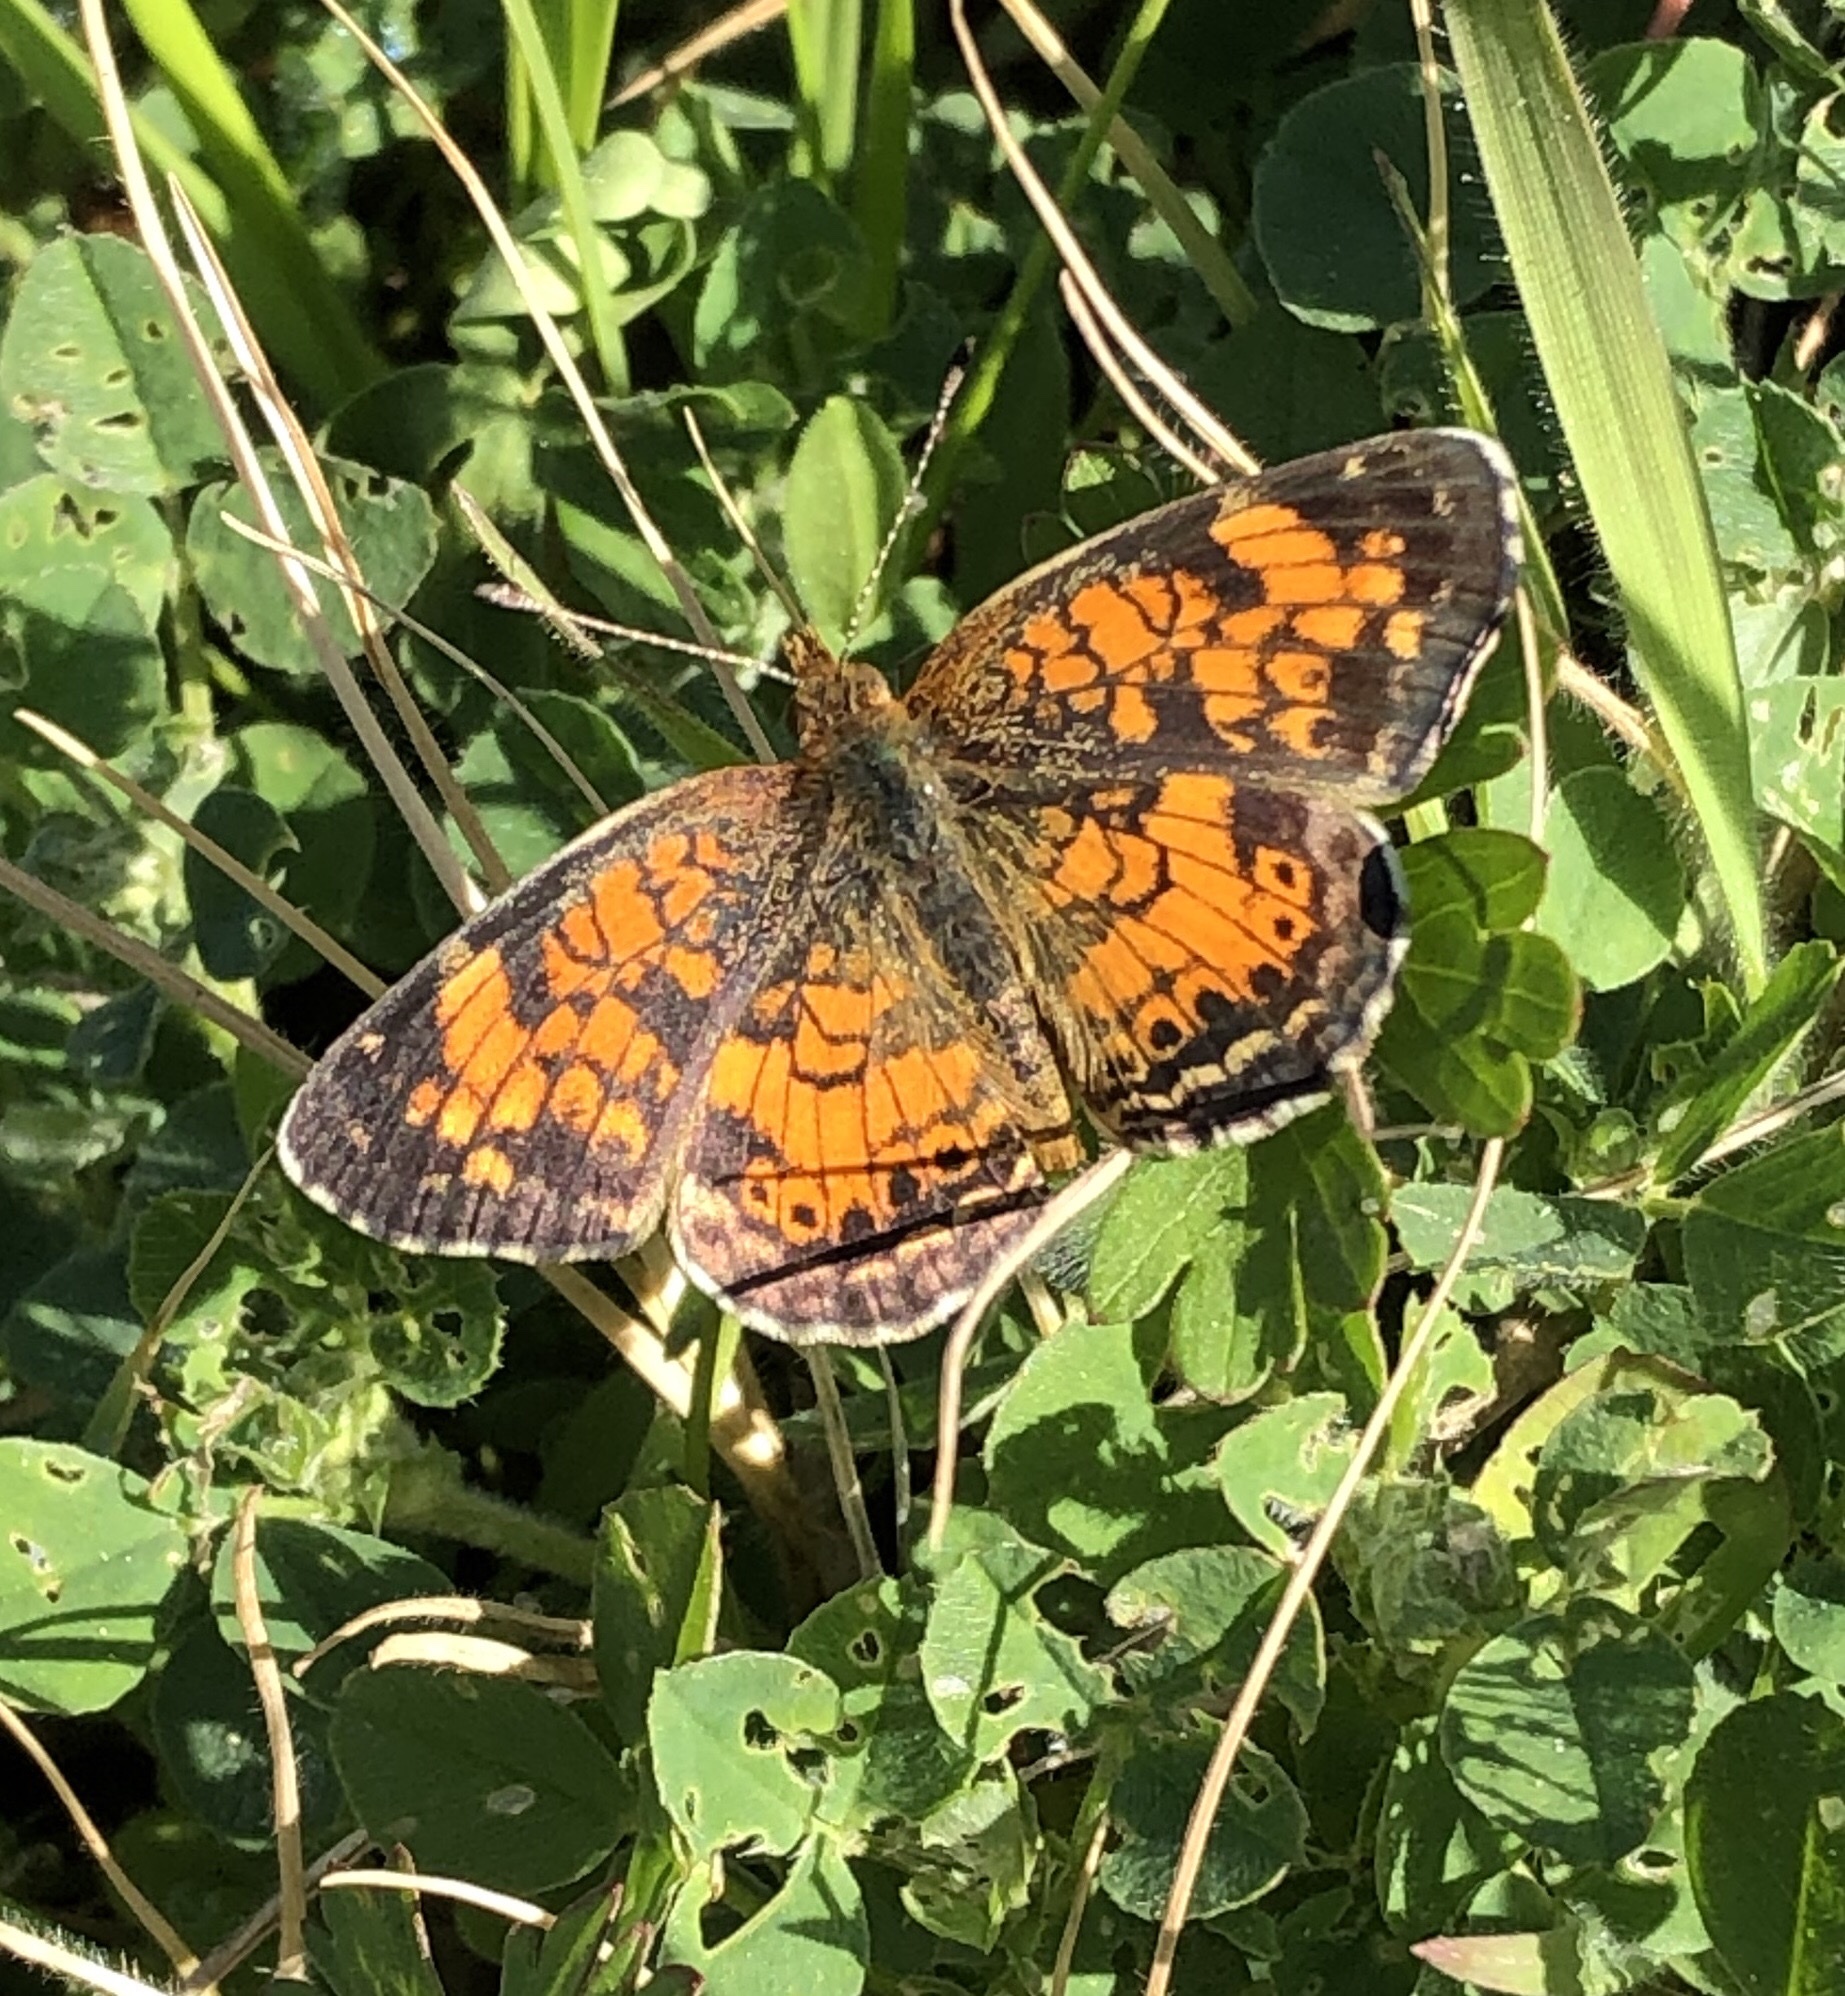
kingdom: Animalia
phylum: Arthropoda
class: Insecta
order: Lepidoptera
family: Nymphalidae
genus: Phyciodes
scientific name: Phyciodes tharos
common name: Pearl crescent
